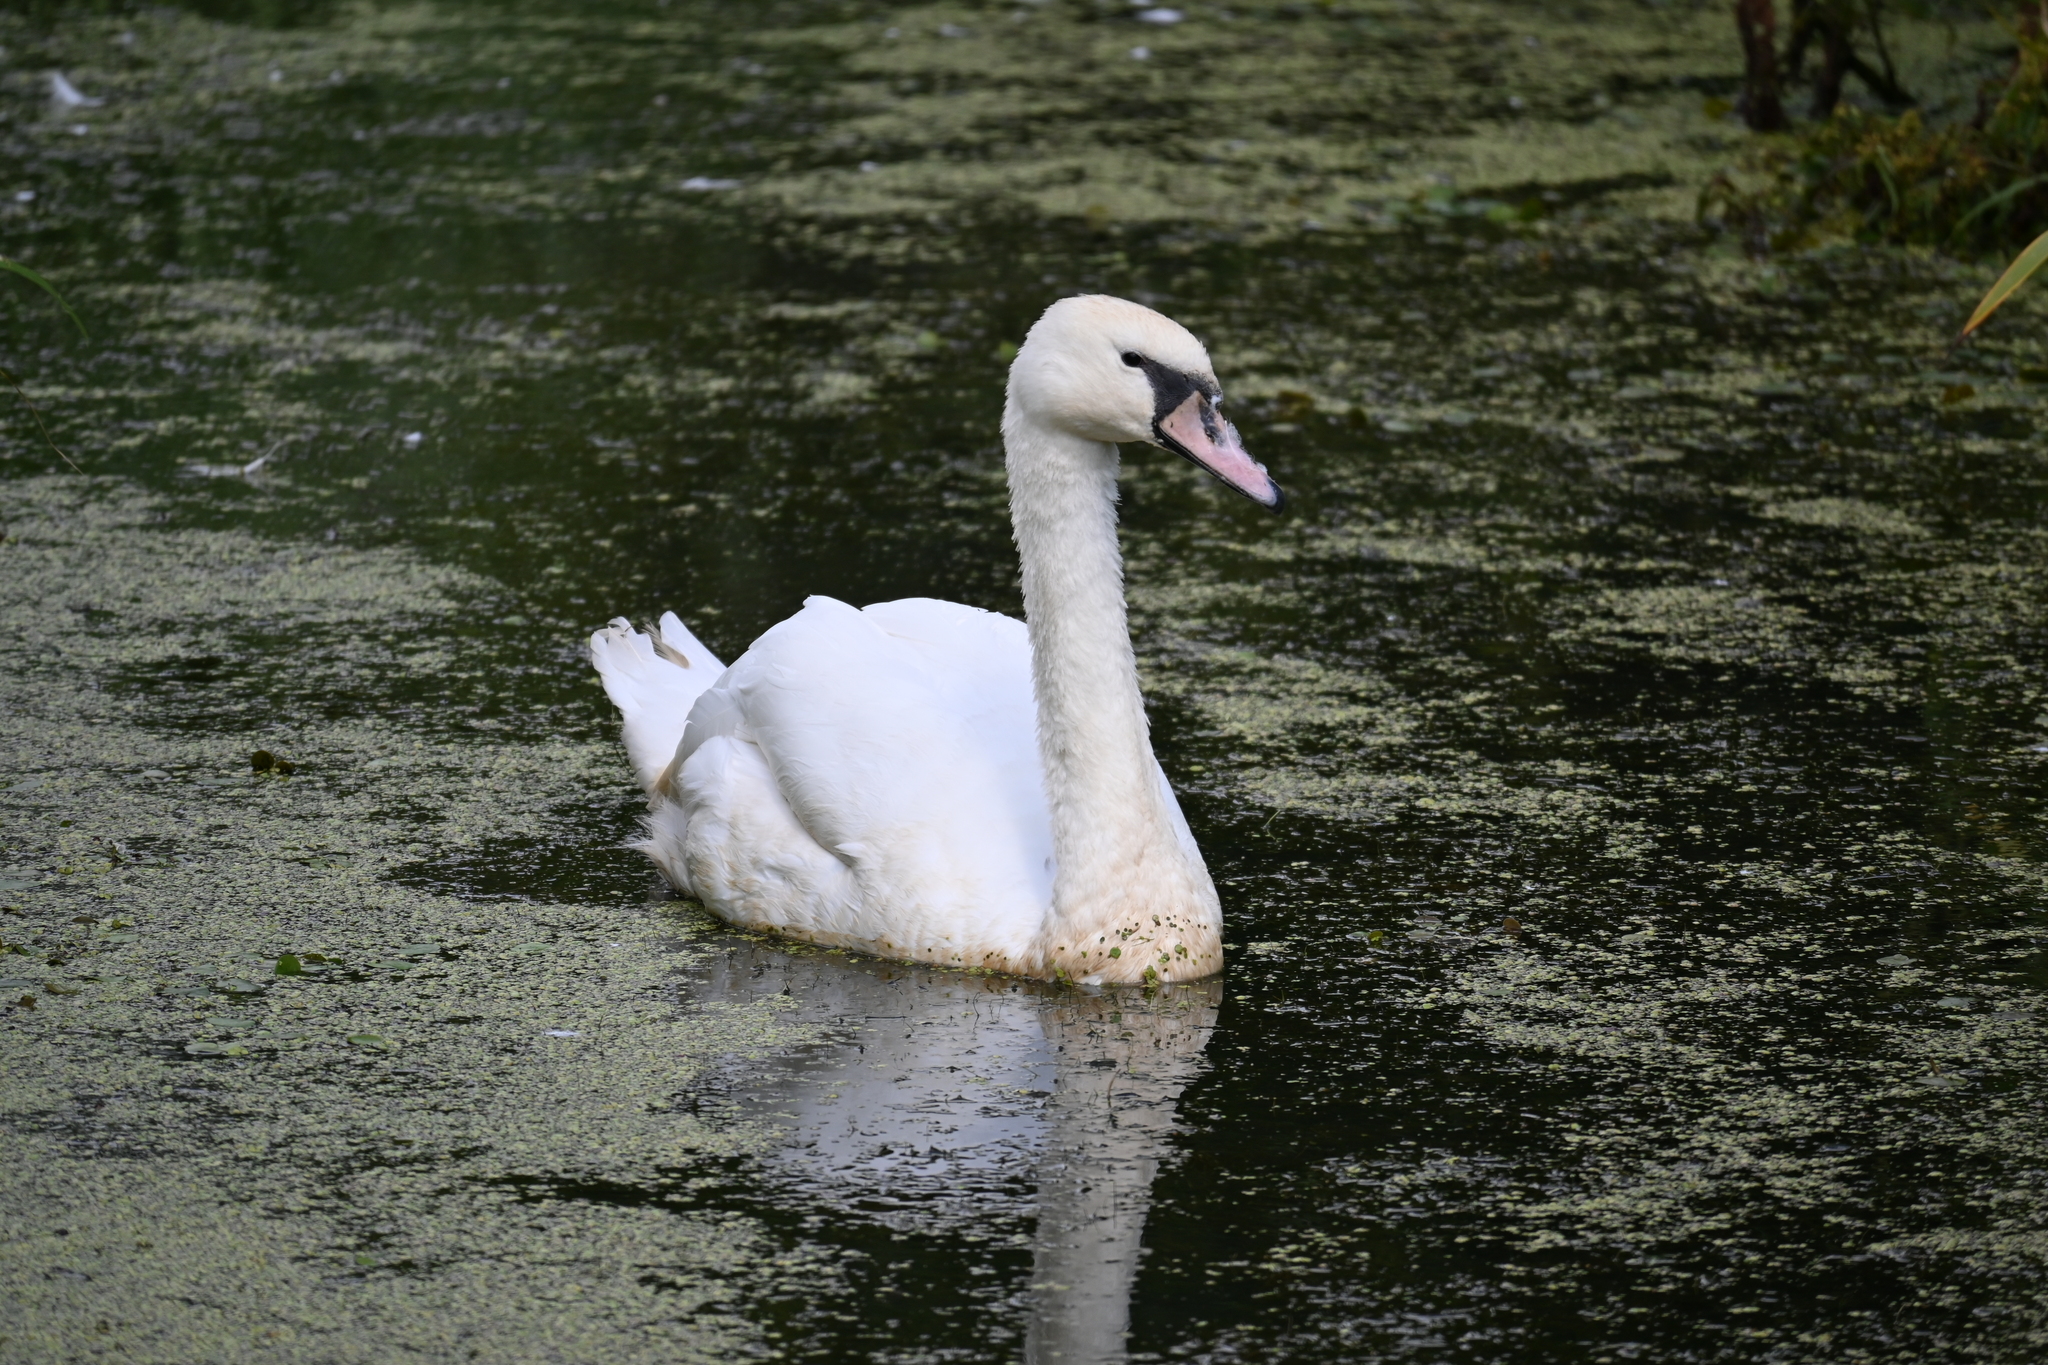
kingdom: Animalia
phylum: Chordata
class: Aves
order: Anseriformes
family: Anatidae
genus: Cygnus
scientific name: Cygnus olor
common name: Mute swan
